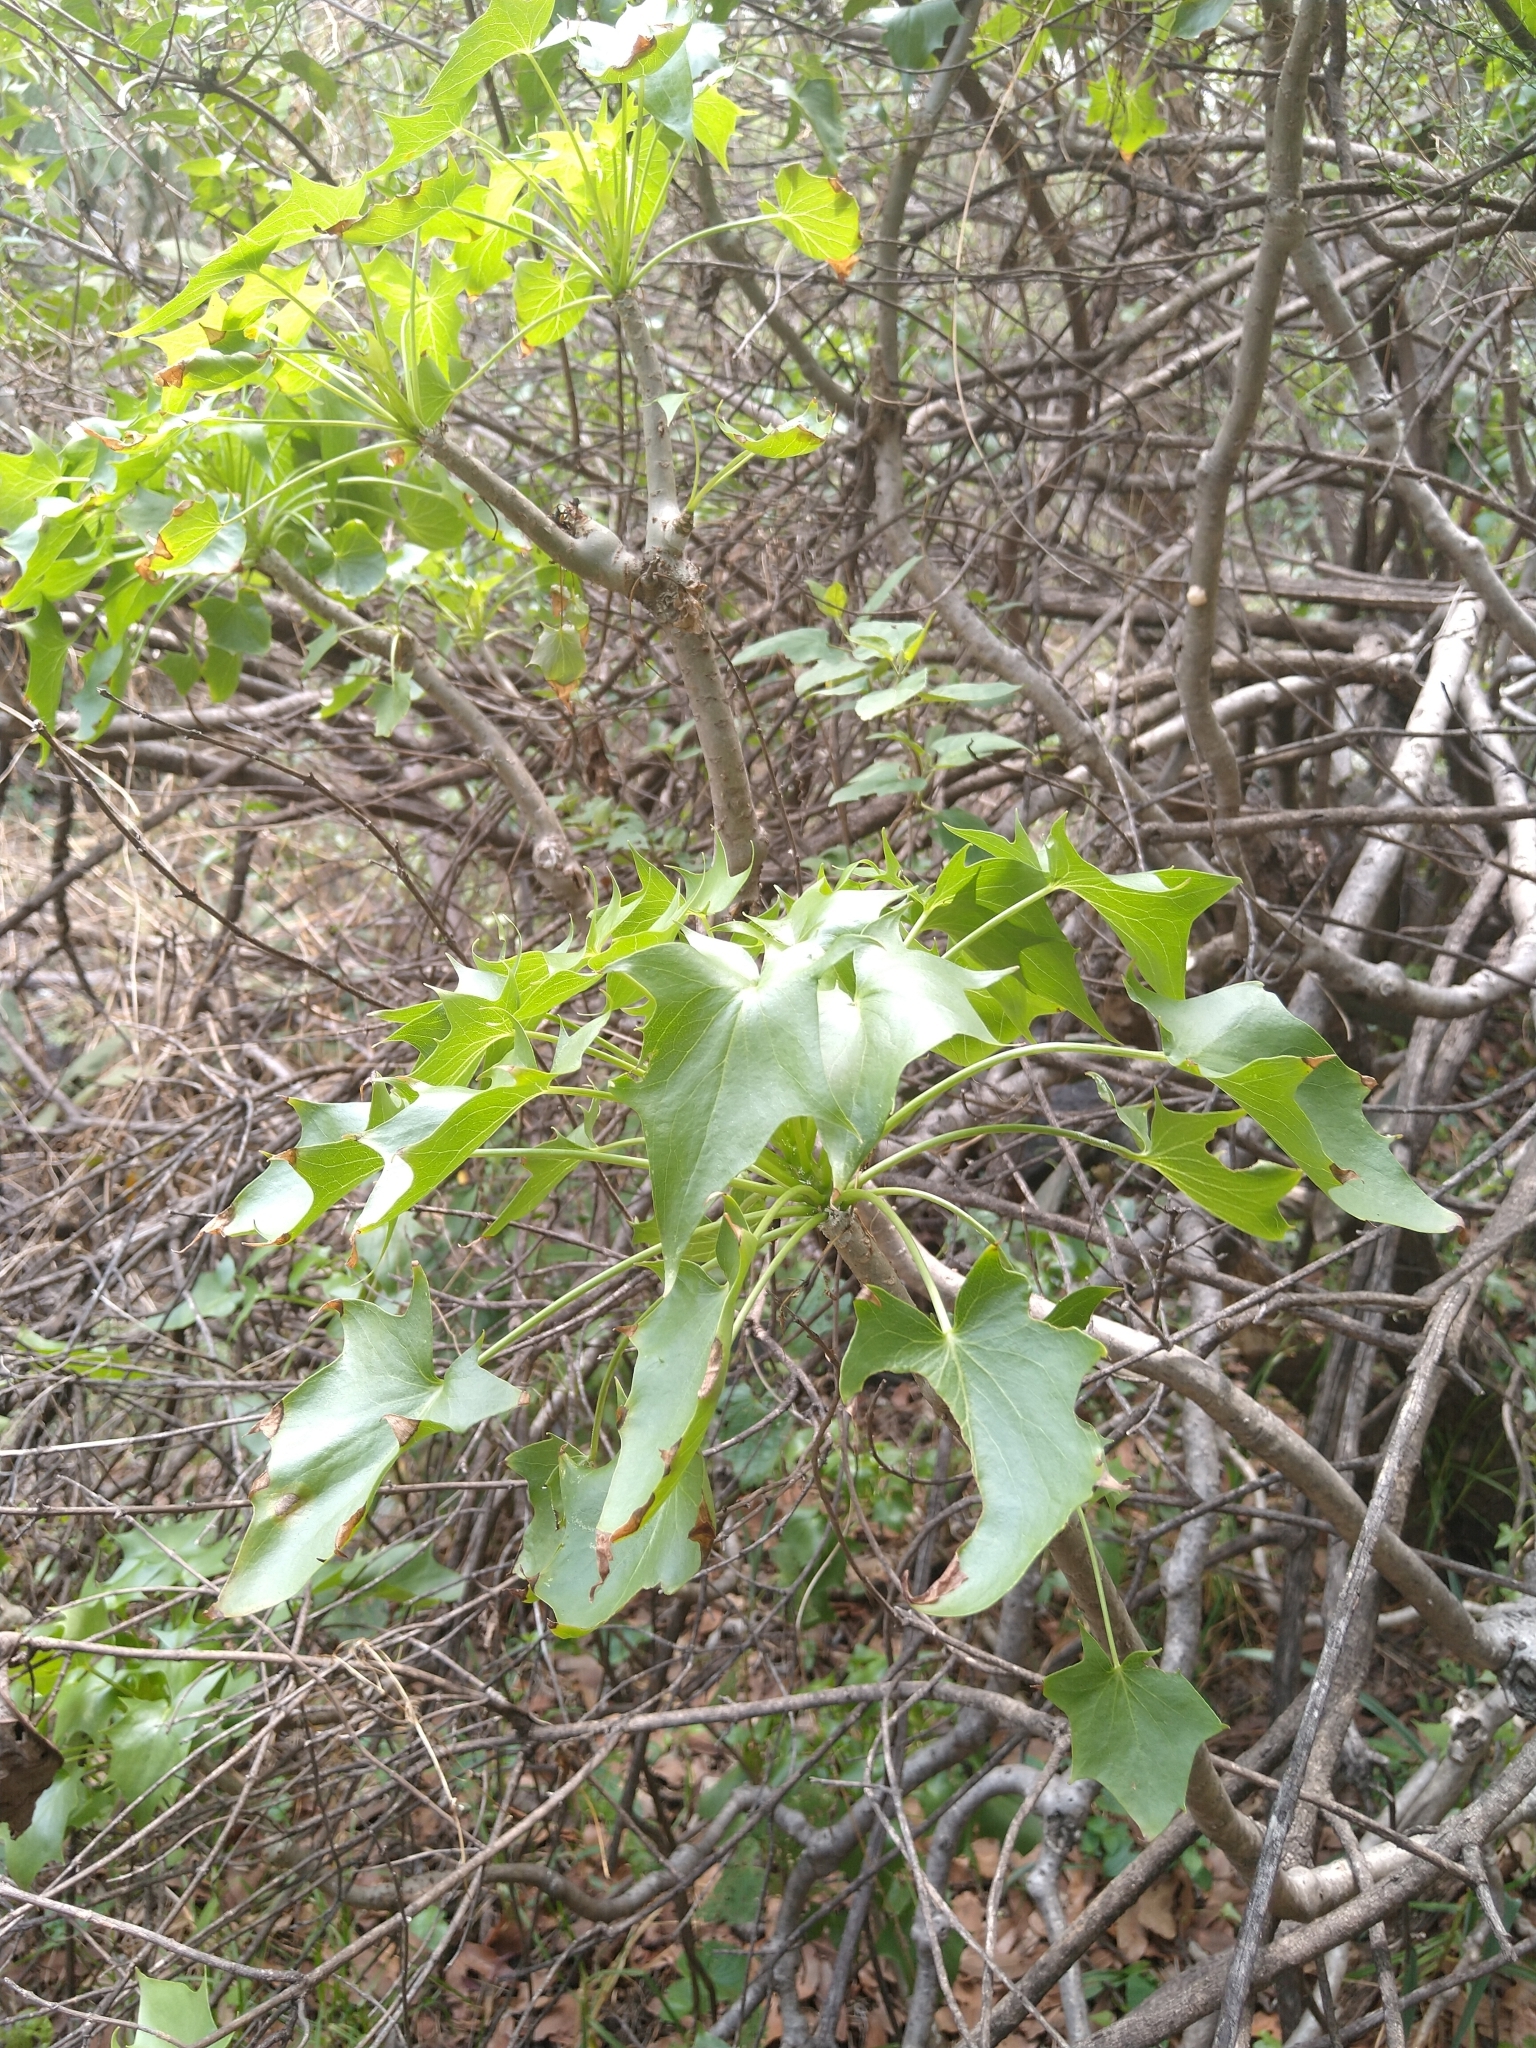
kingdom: Plantae
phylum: Tracheophyta
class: Magnoliopsida
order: Asterales
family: Asteraceae
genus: Pittocaulon
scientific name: Pittocaulon praecox
